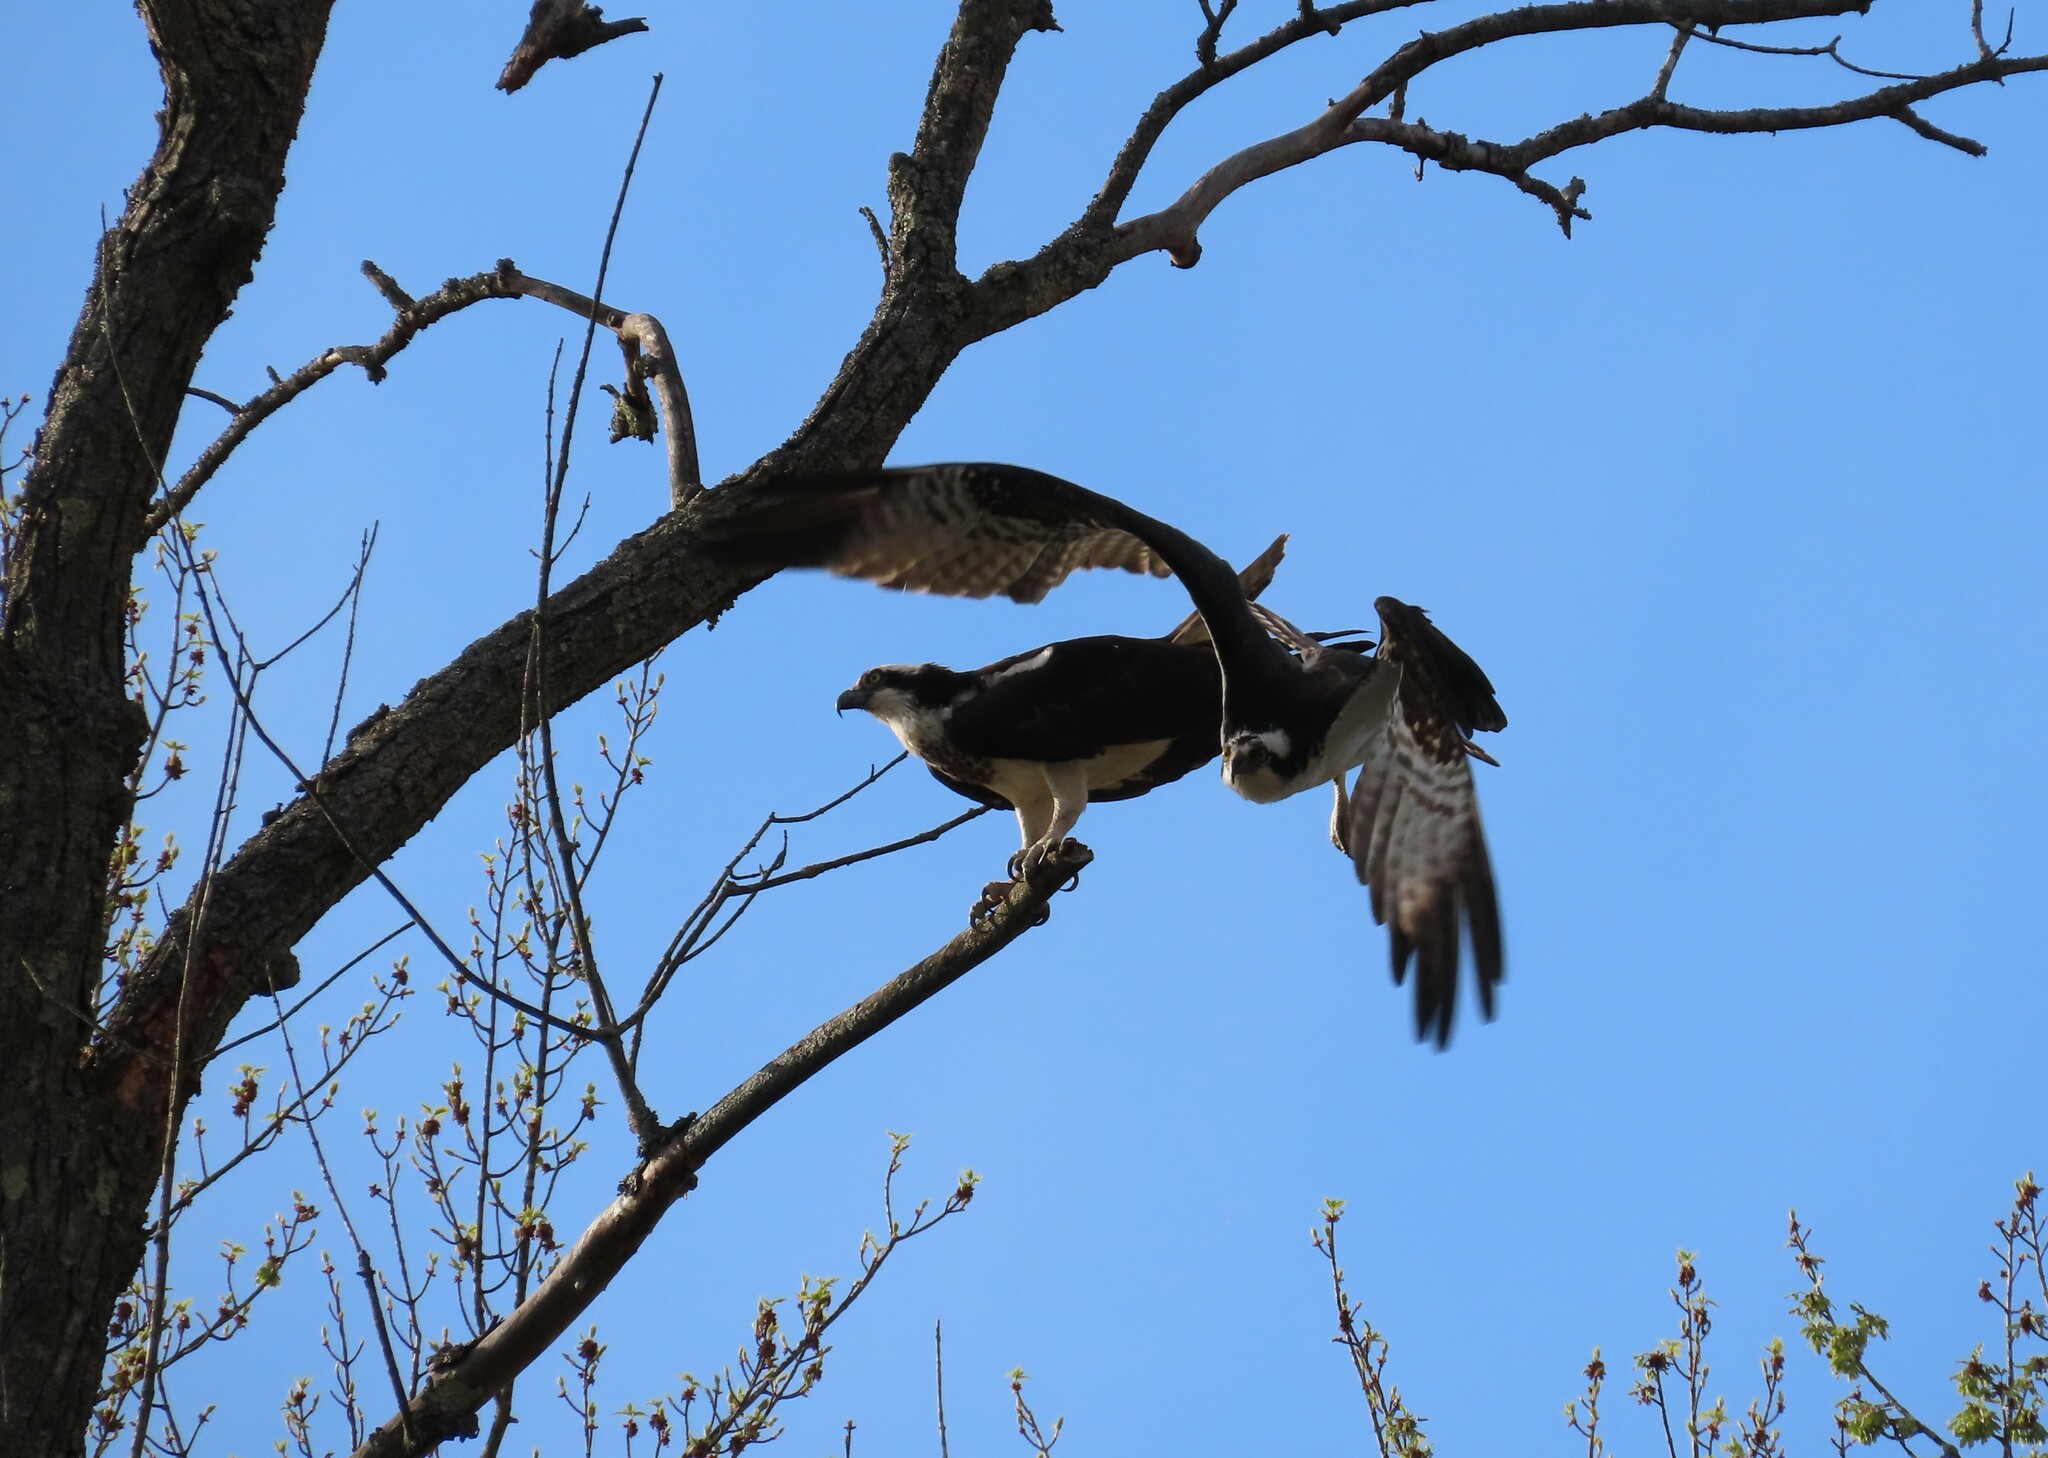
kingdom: Animalia
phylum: Chordata
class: Aves
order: Accipitriformes
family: Pandionidae
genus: Pandion
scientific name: Pandion haliaetus
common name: Osprey
